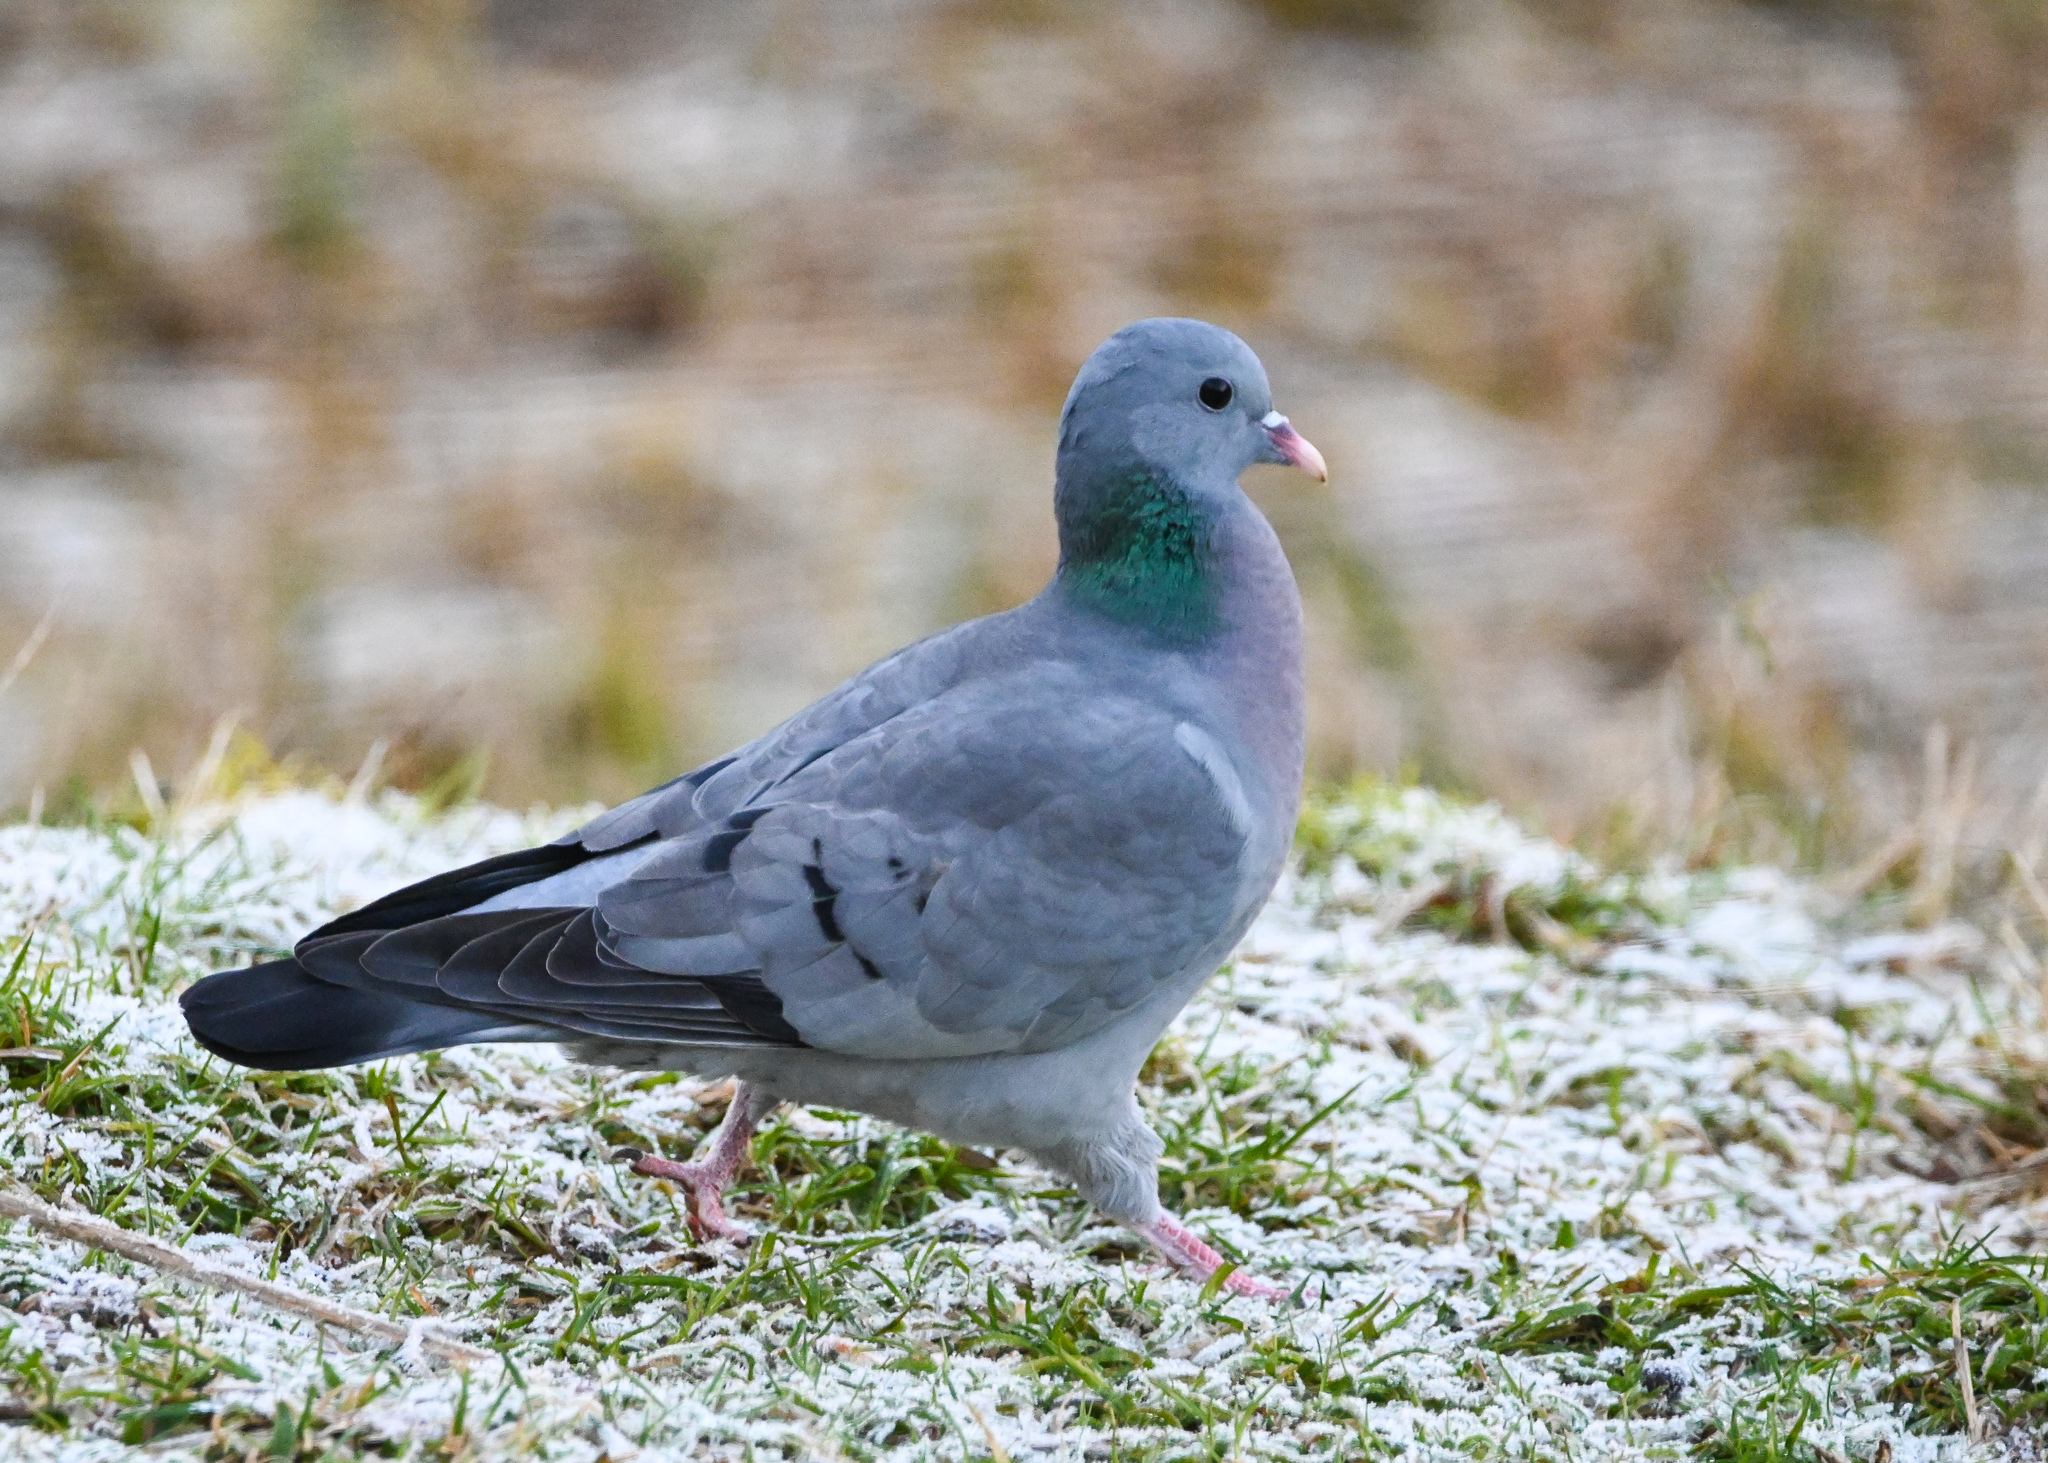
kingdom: Animalia
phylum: Chordata
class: Aves
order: Columbiformes
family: Columbidae
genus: Columba
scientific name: Columba oenas
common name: Stock dove
